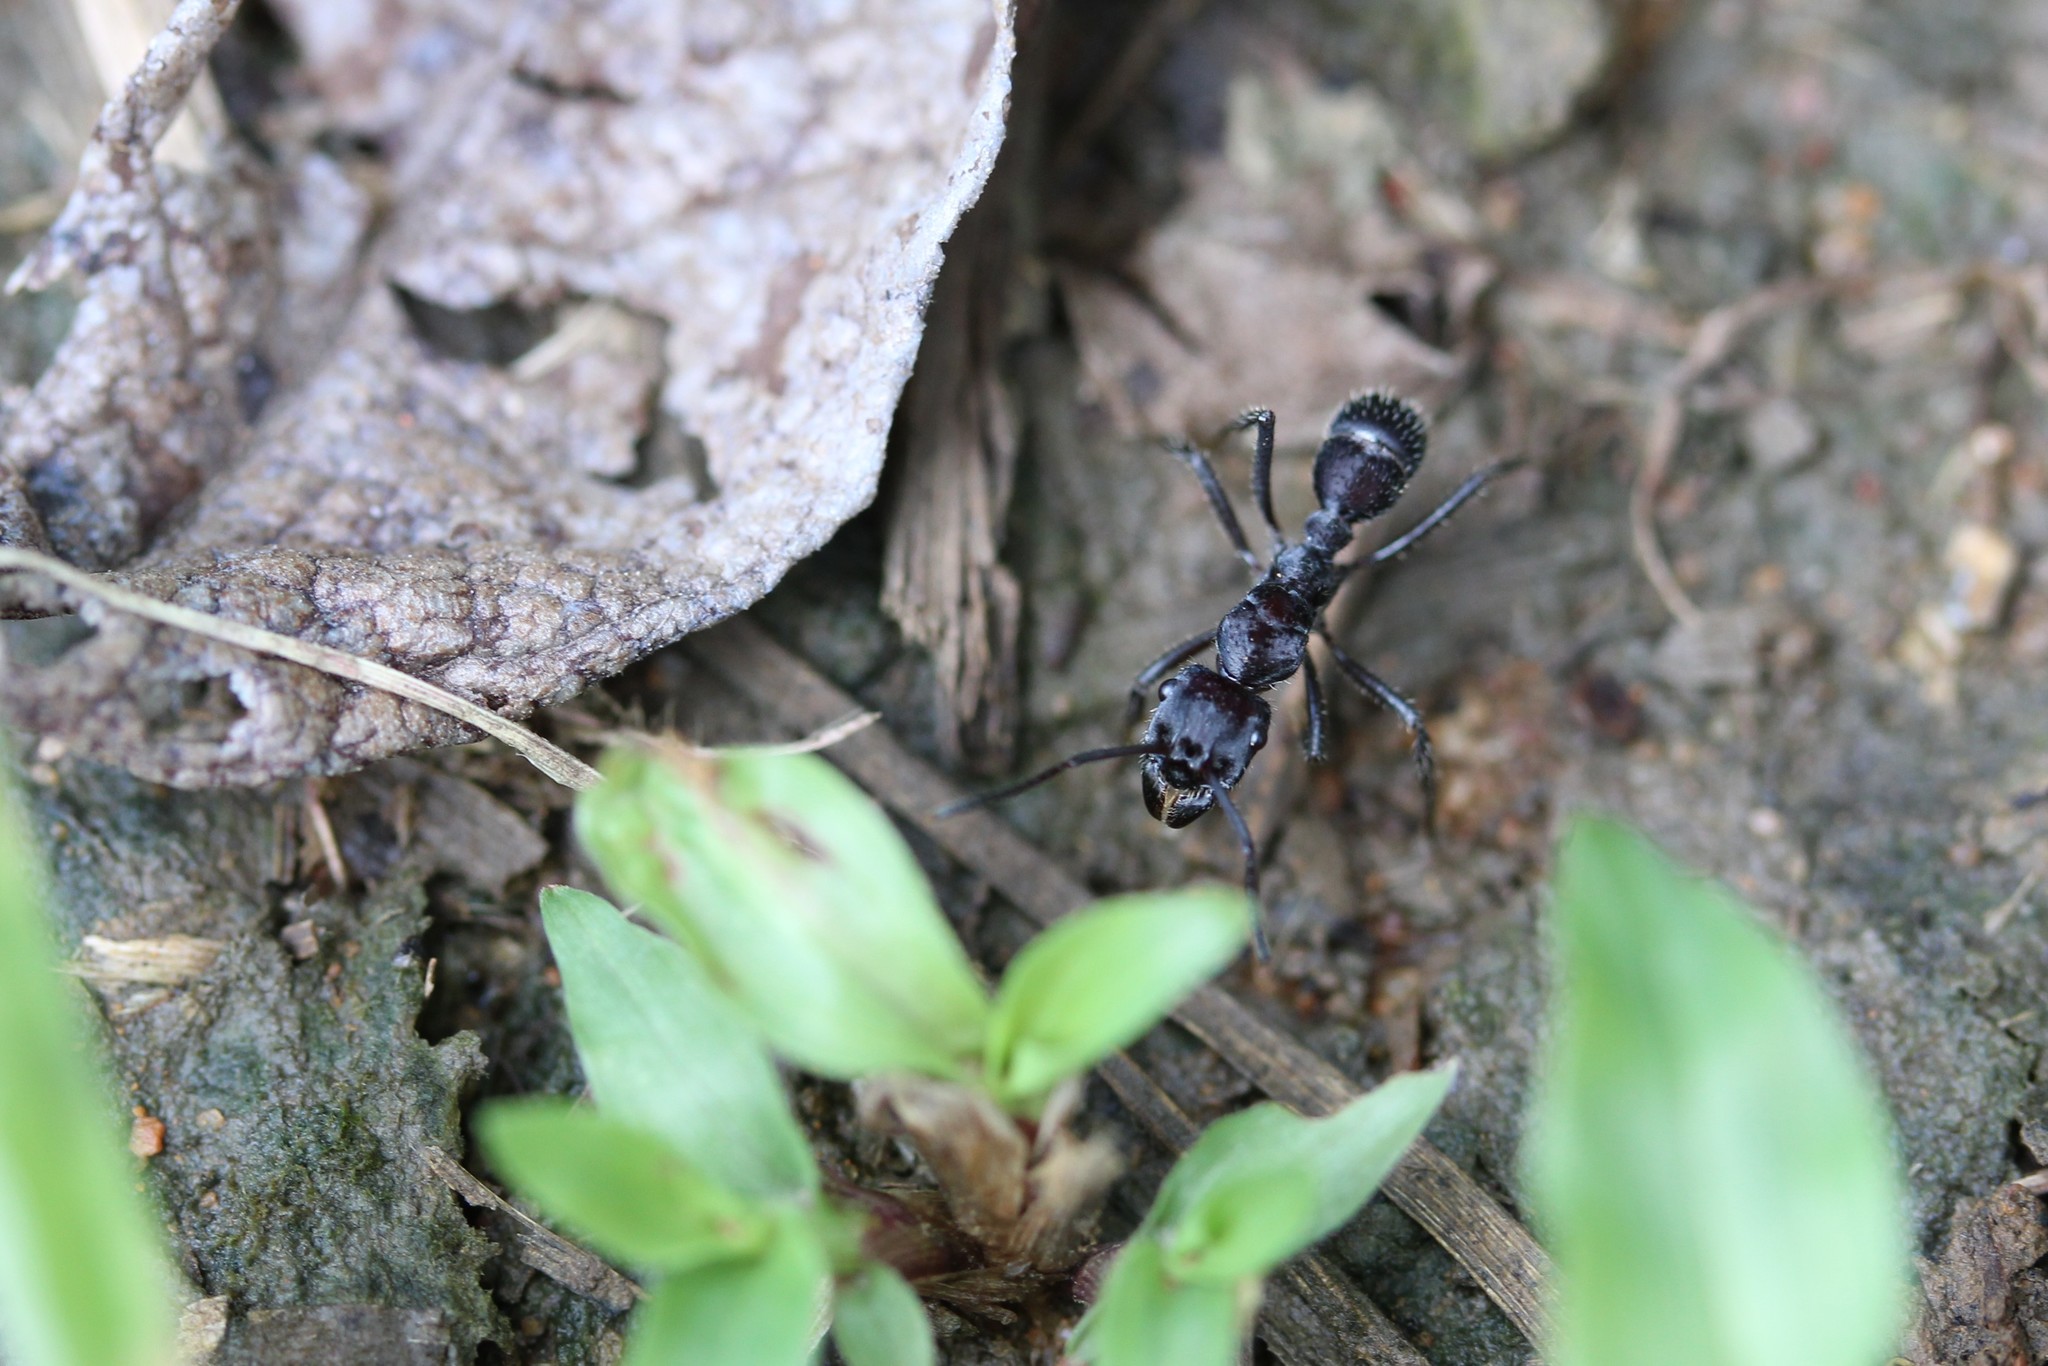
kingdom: Animalia
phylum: Arthropoda
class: Insecta
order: Hymenoptera
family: Formicidae
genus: Ectatomma
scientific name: Ectatomma
